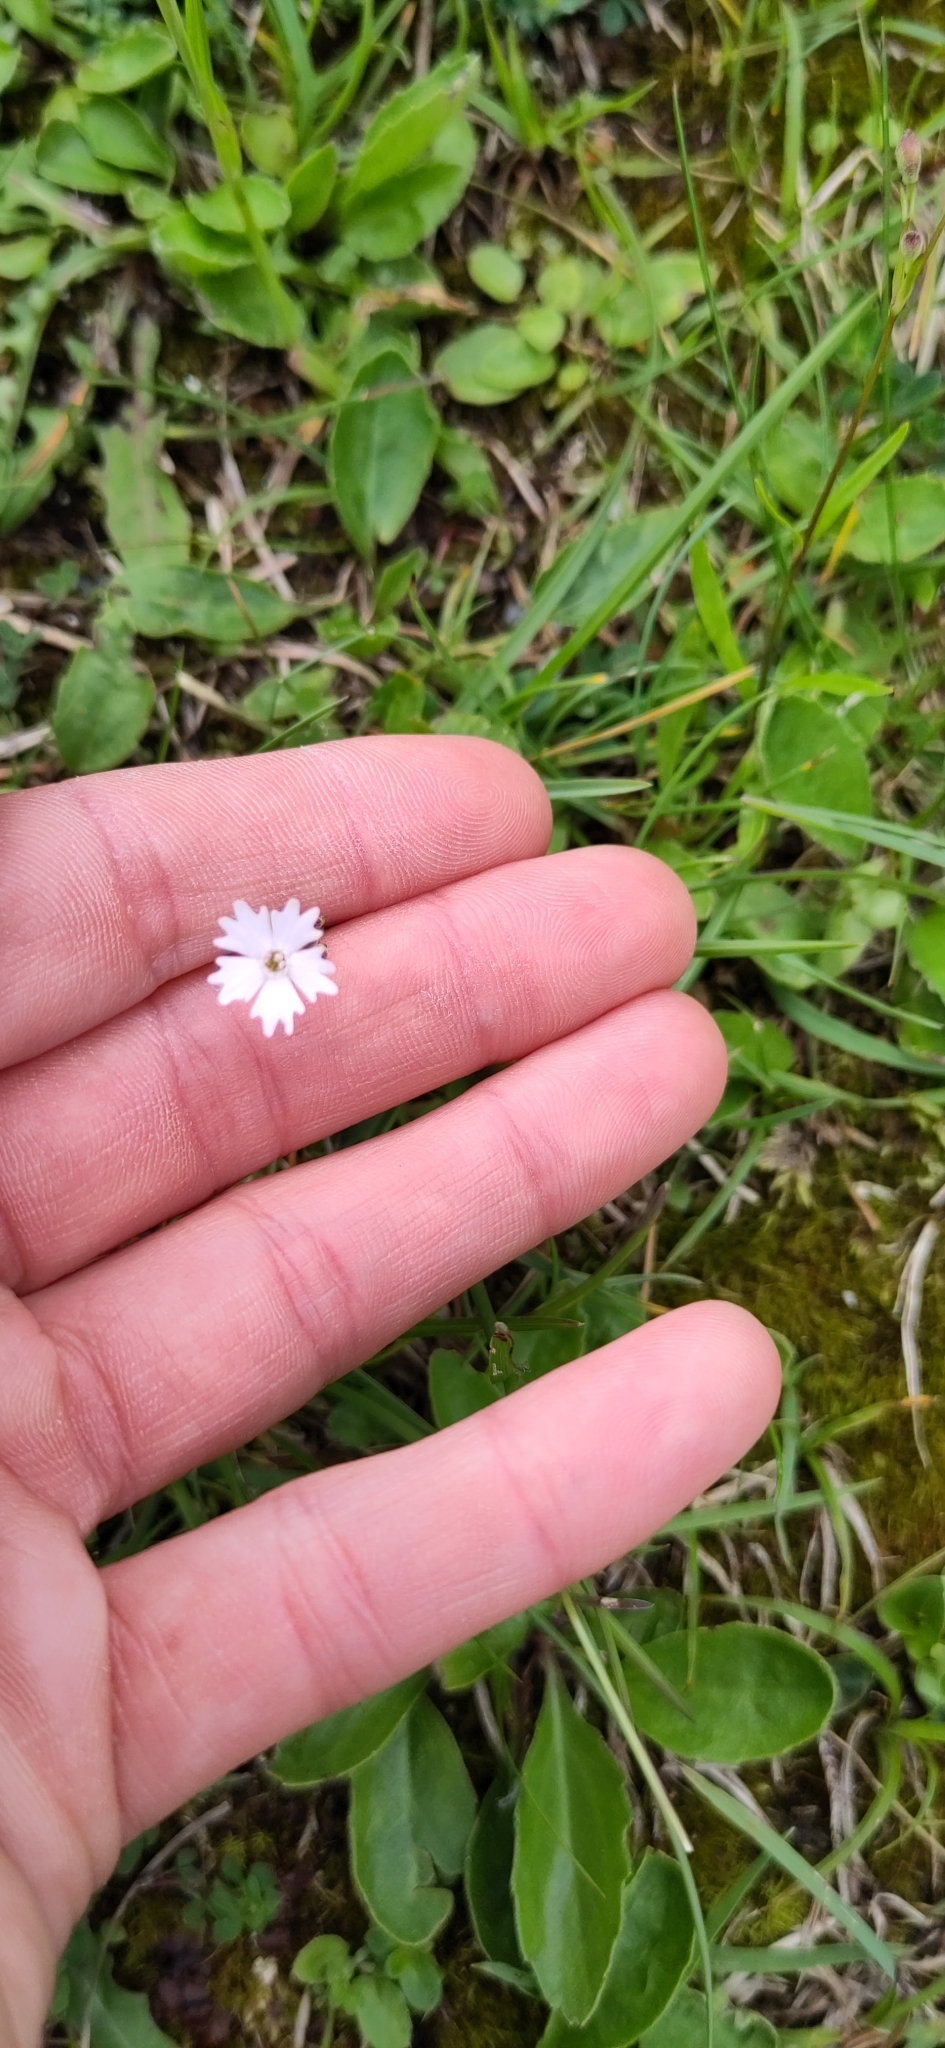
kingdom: Plantae
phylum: Tracheophyta
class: Magnoliopsida
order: Caryophyllales
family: Caryophyllaceae
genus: Heliosperma
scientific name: Heliosperma pusillum
